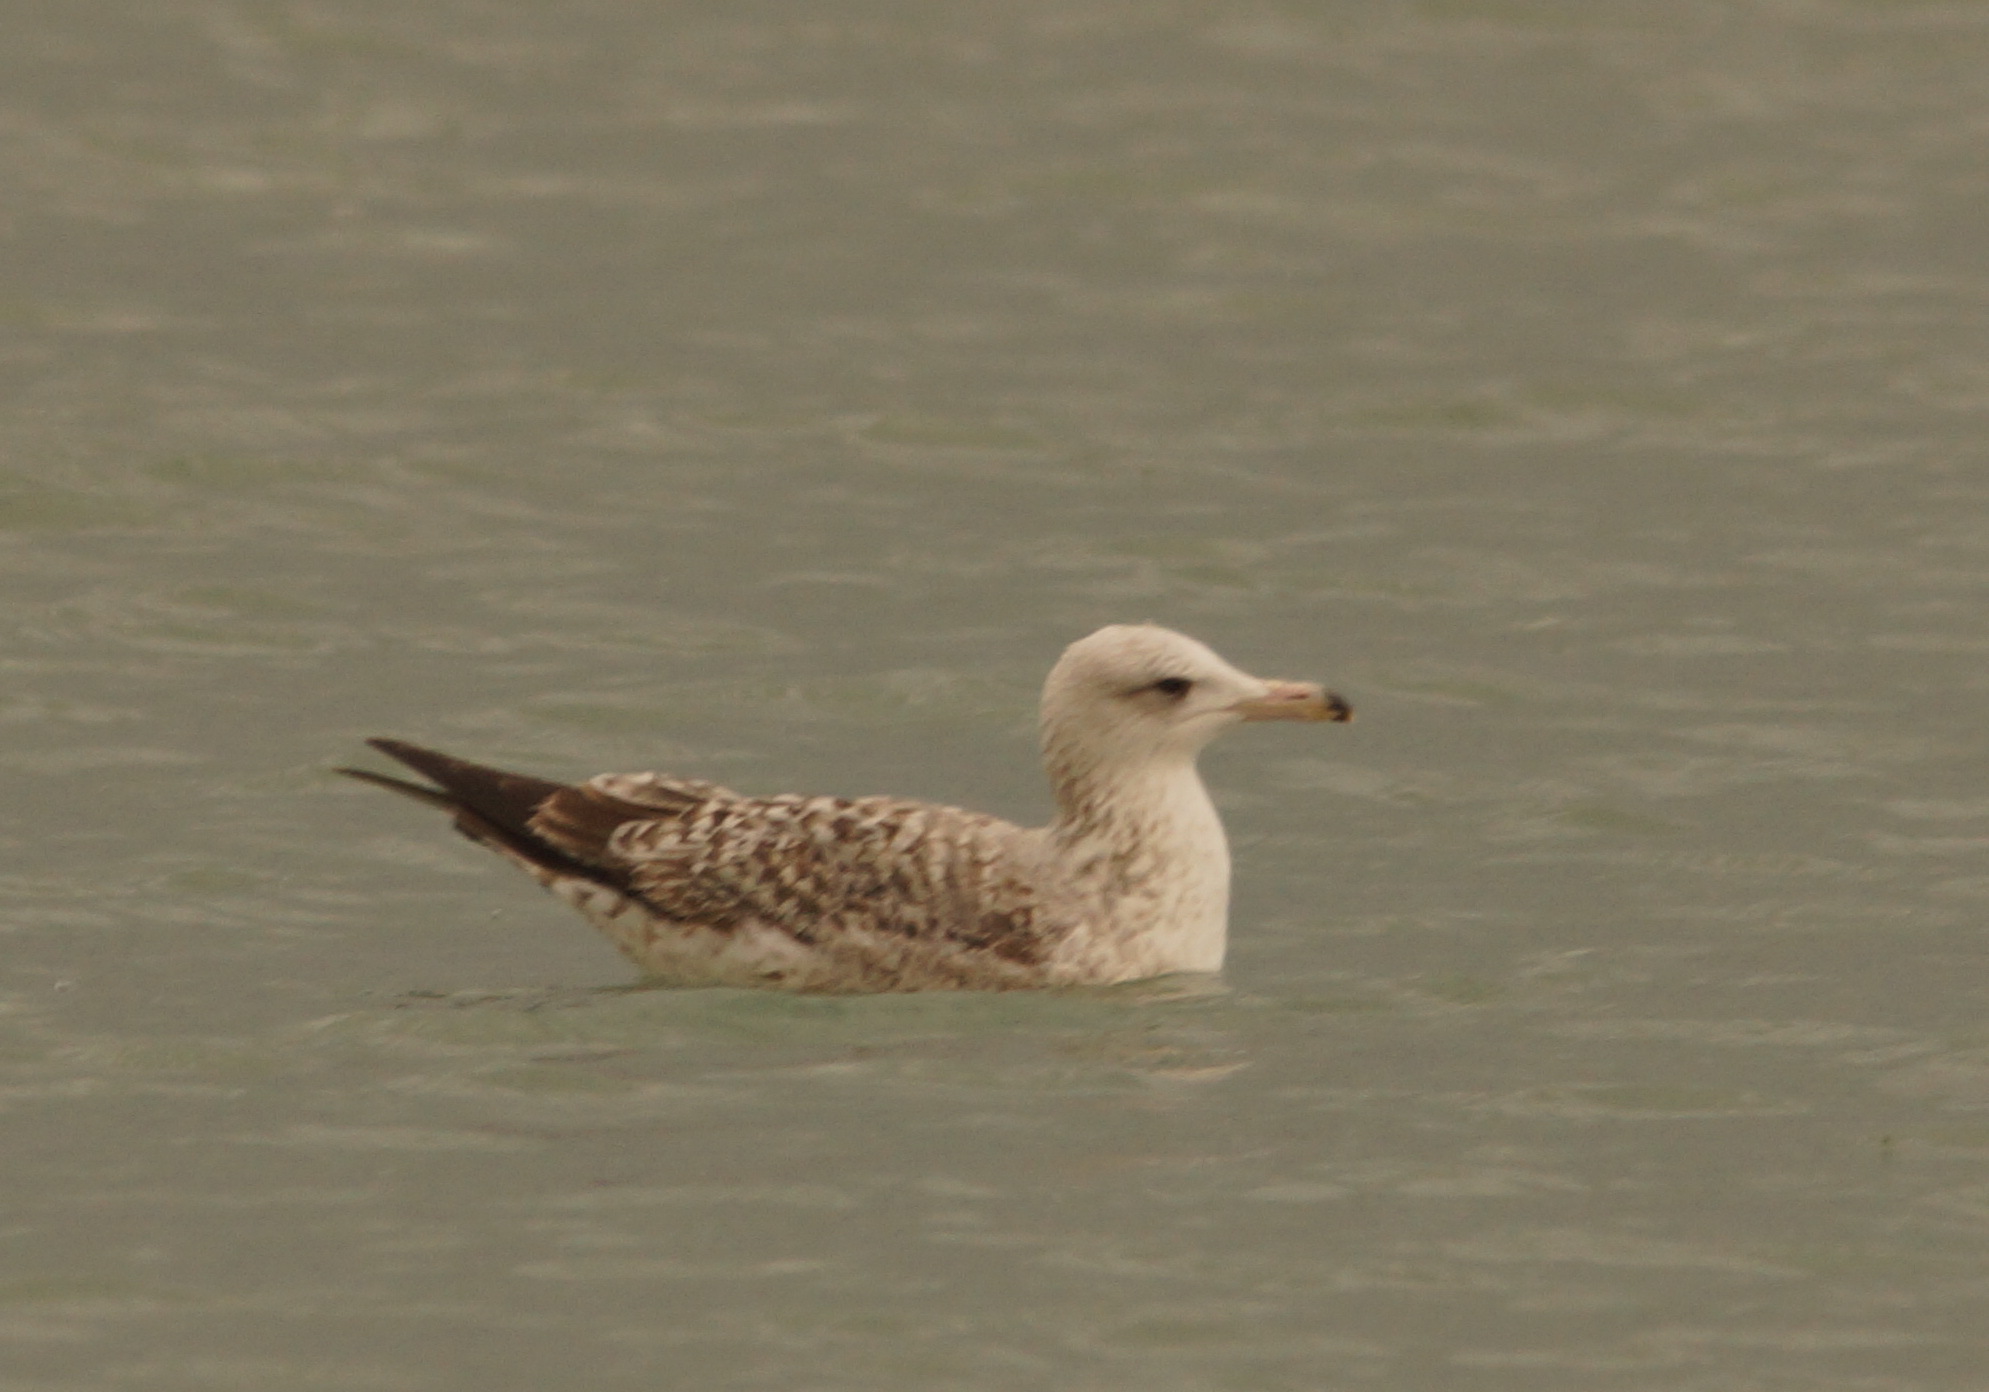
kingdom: Animalia
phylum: Chordata
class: Aves
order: Charadriiformes
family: Laridae
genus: Larus
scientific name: Larus michahellis
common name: Yellow-legged gull
